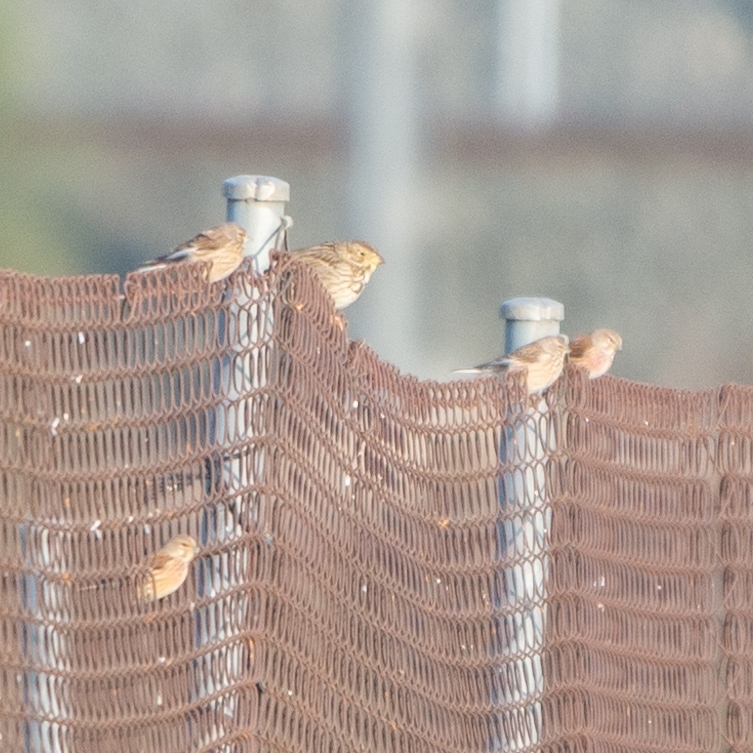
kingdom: Animalia
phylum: Chordata
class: Aves
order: Passeriformes
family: Fringillidae
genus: Linaria
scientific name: Linaria cannabina
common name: Common linnet
